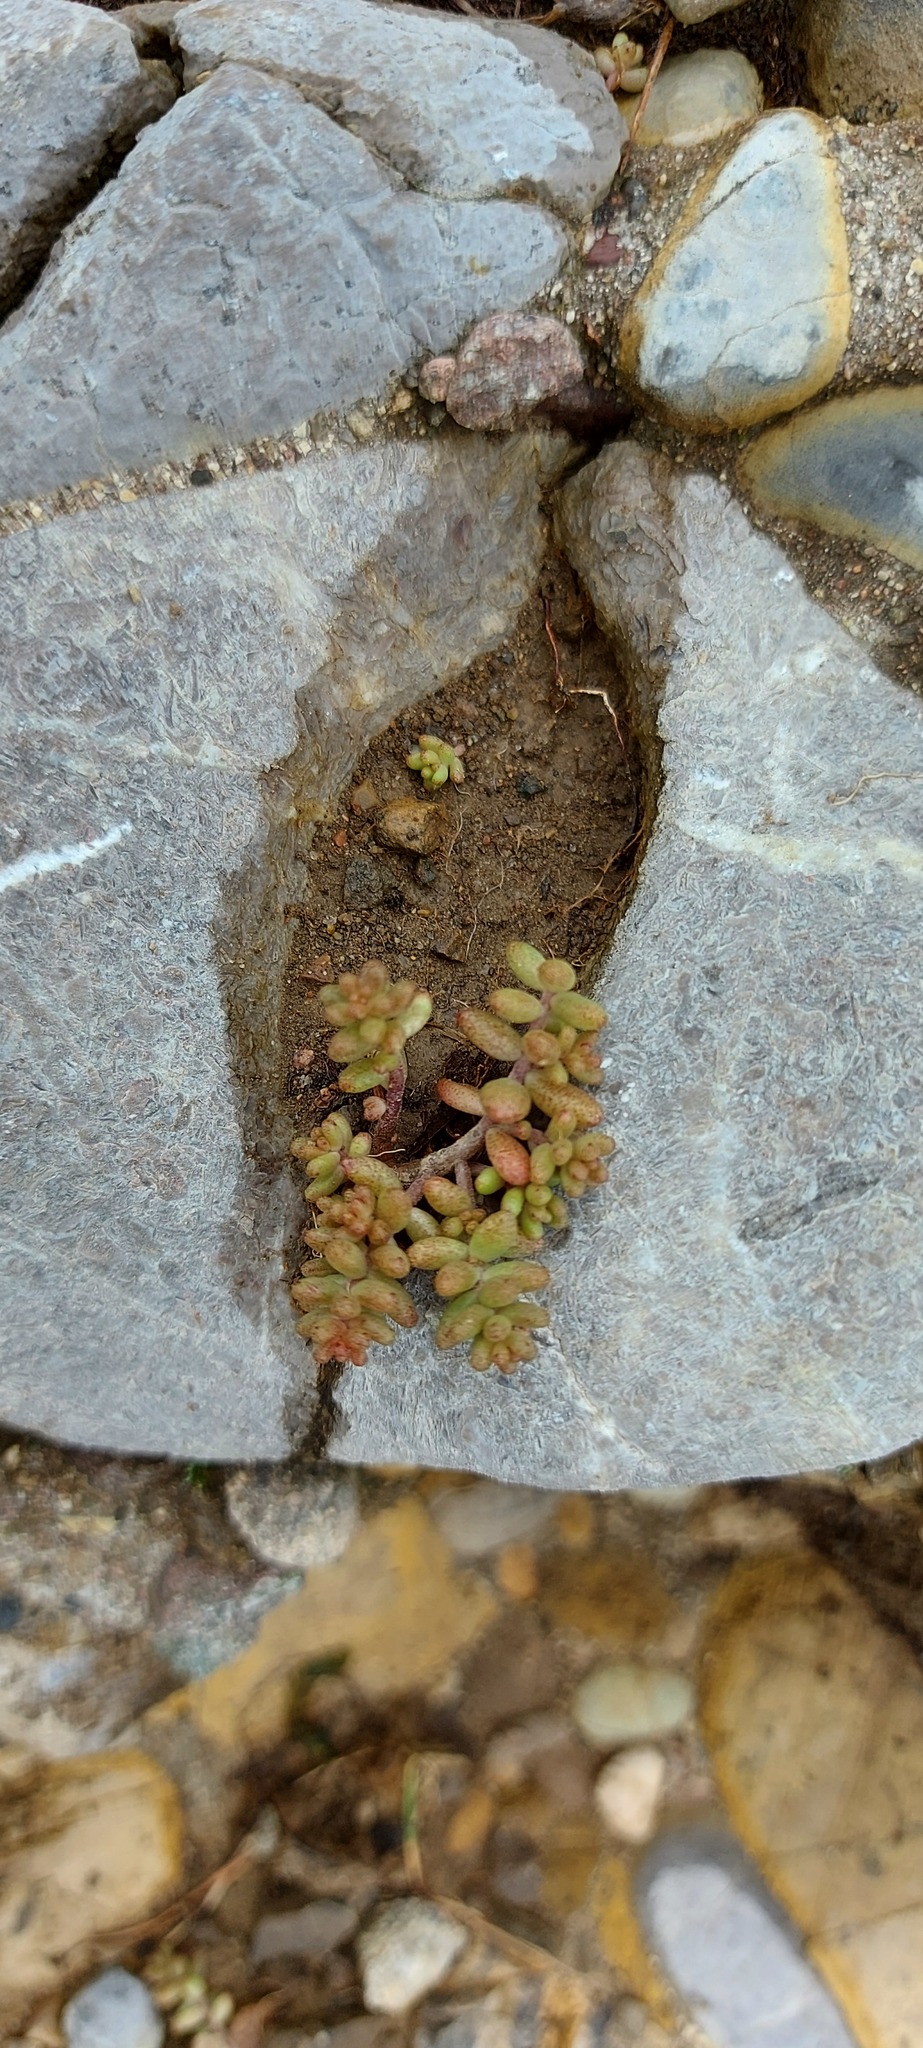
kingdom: Plantae
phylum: Tracheophyta
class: Magnoliopsida
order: Saxifragales
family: Crassulaceae
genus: Sedum
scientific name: Sedum album
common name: White stonecrop
